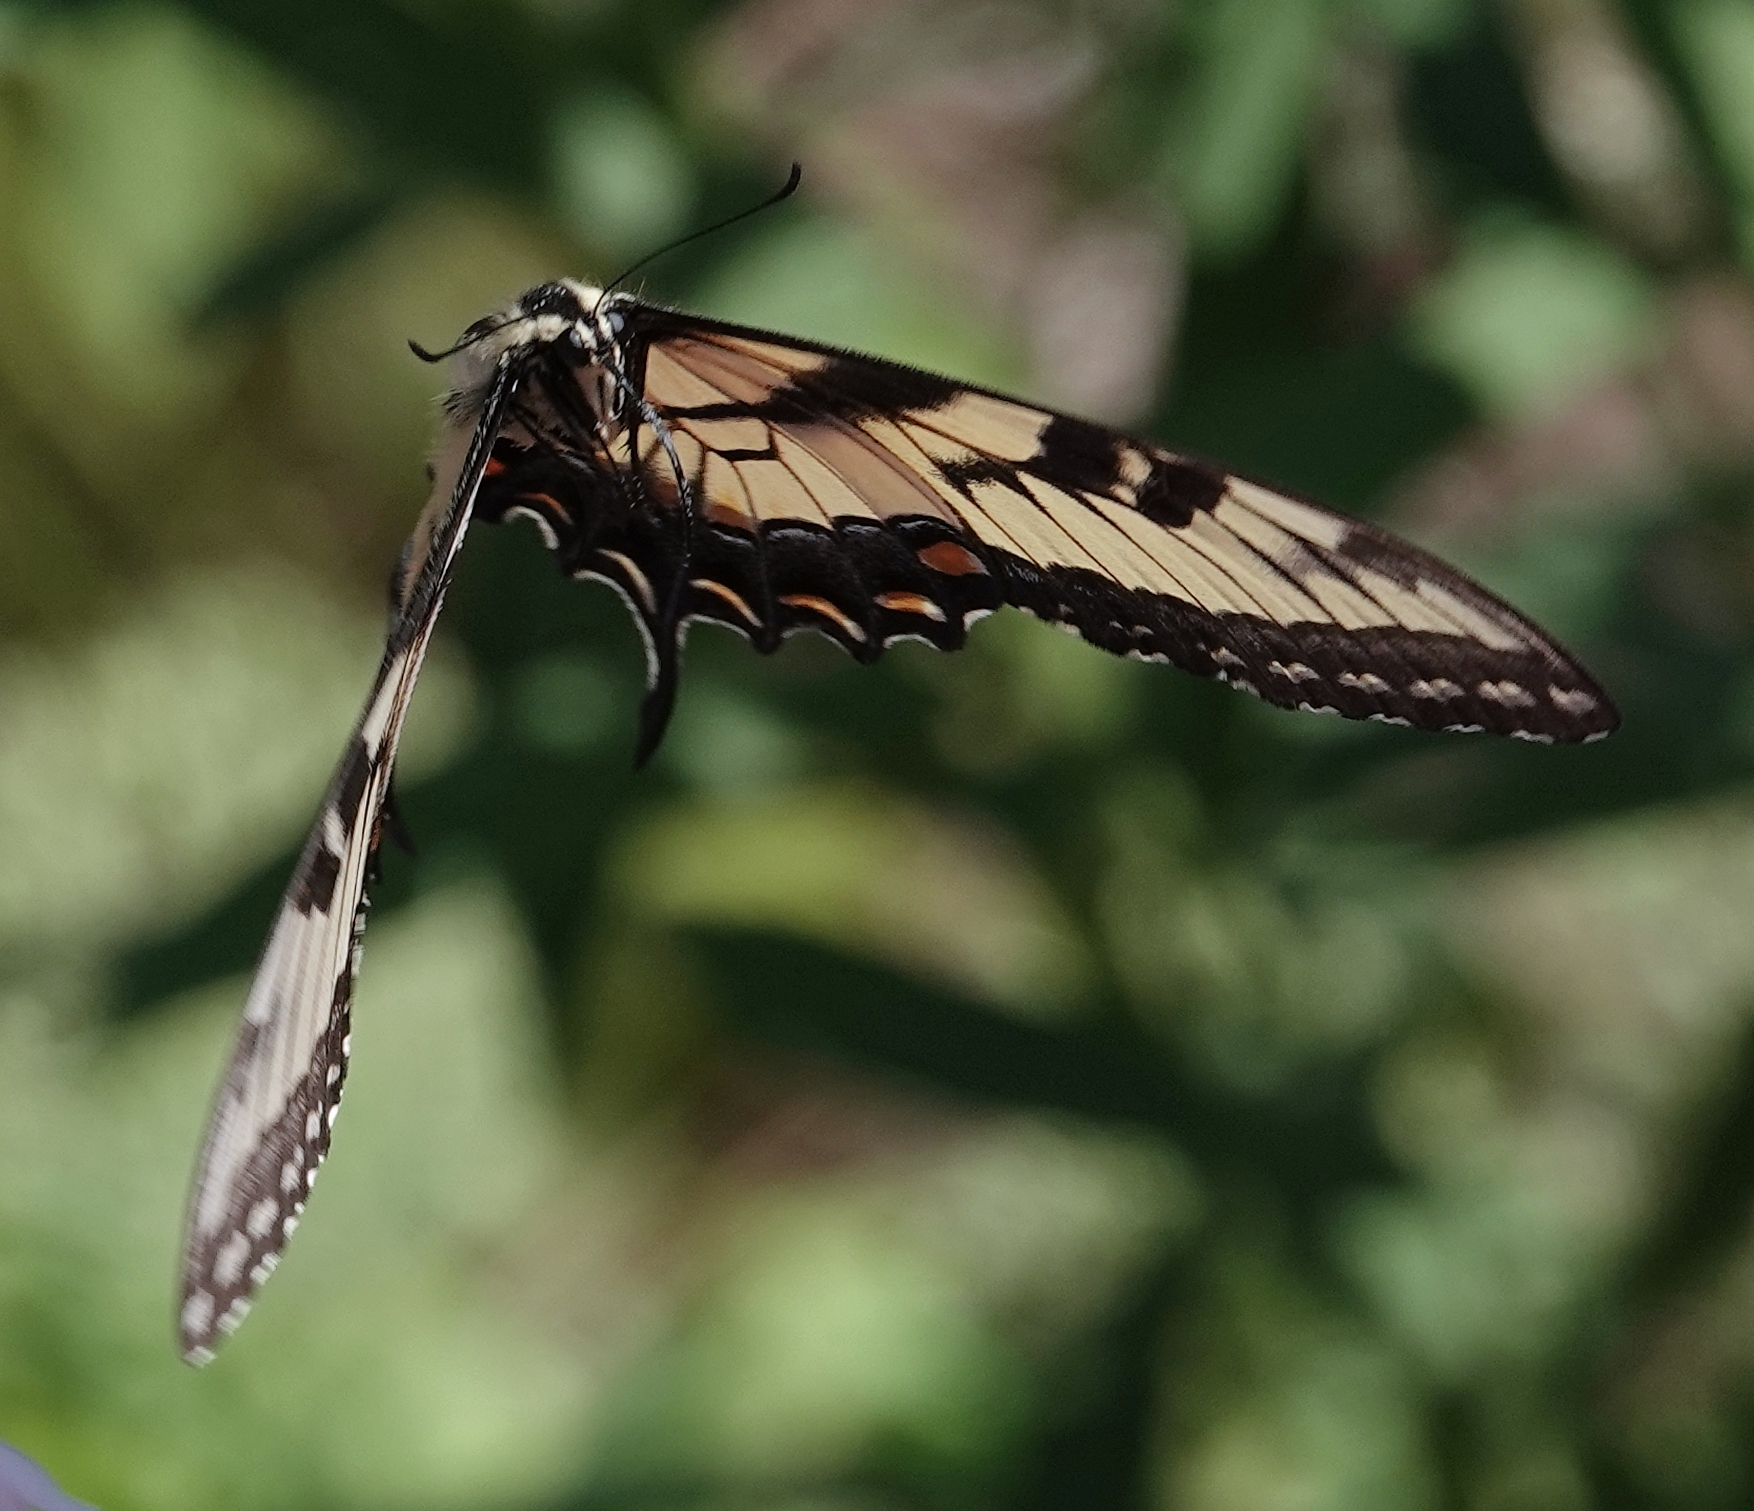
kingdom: Animalia
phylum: Arthropoda
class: Insecta
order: Lepidoptera
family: Papilionidae
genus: Papilio
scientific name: Papilio glaucus
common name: Tiger swallowtail
